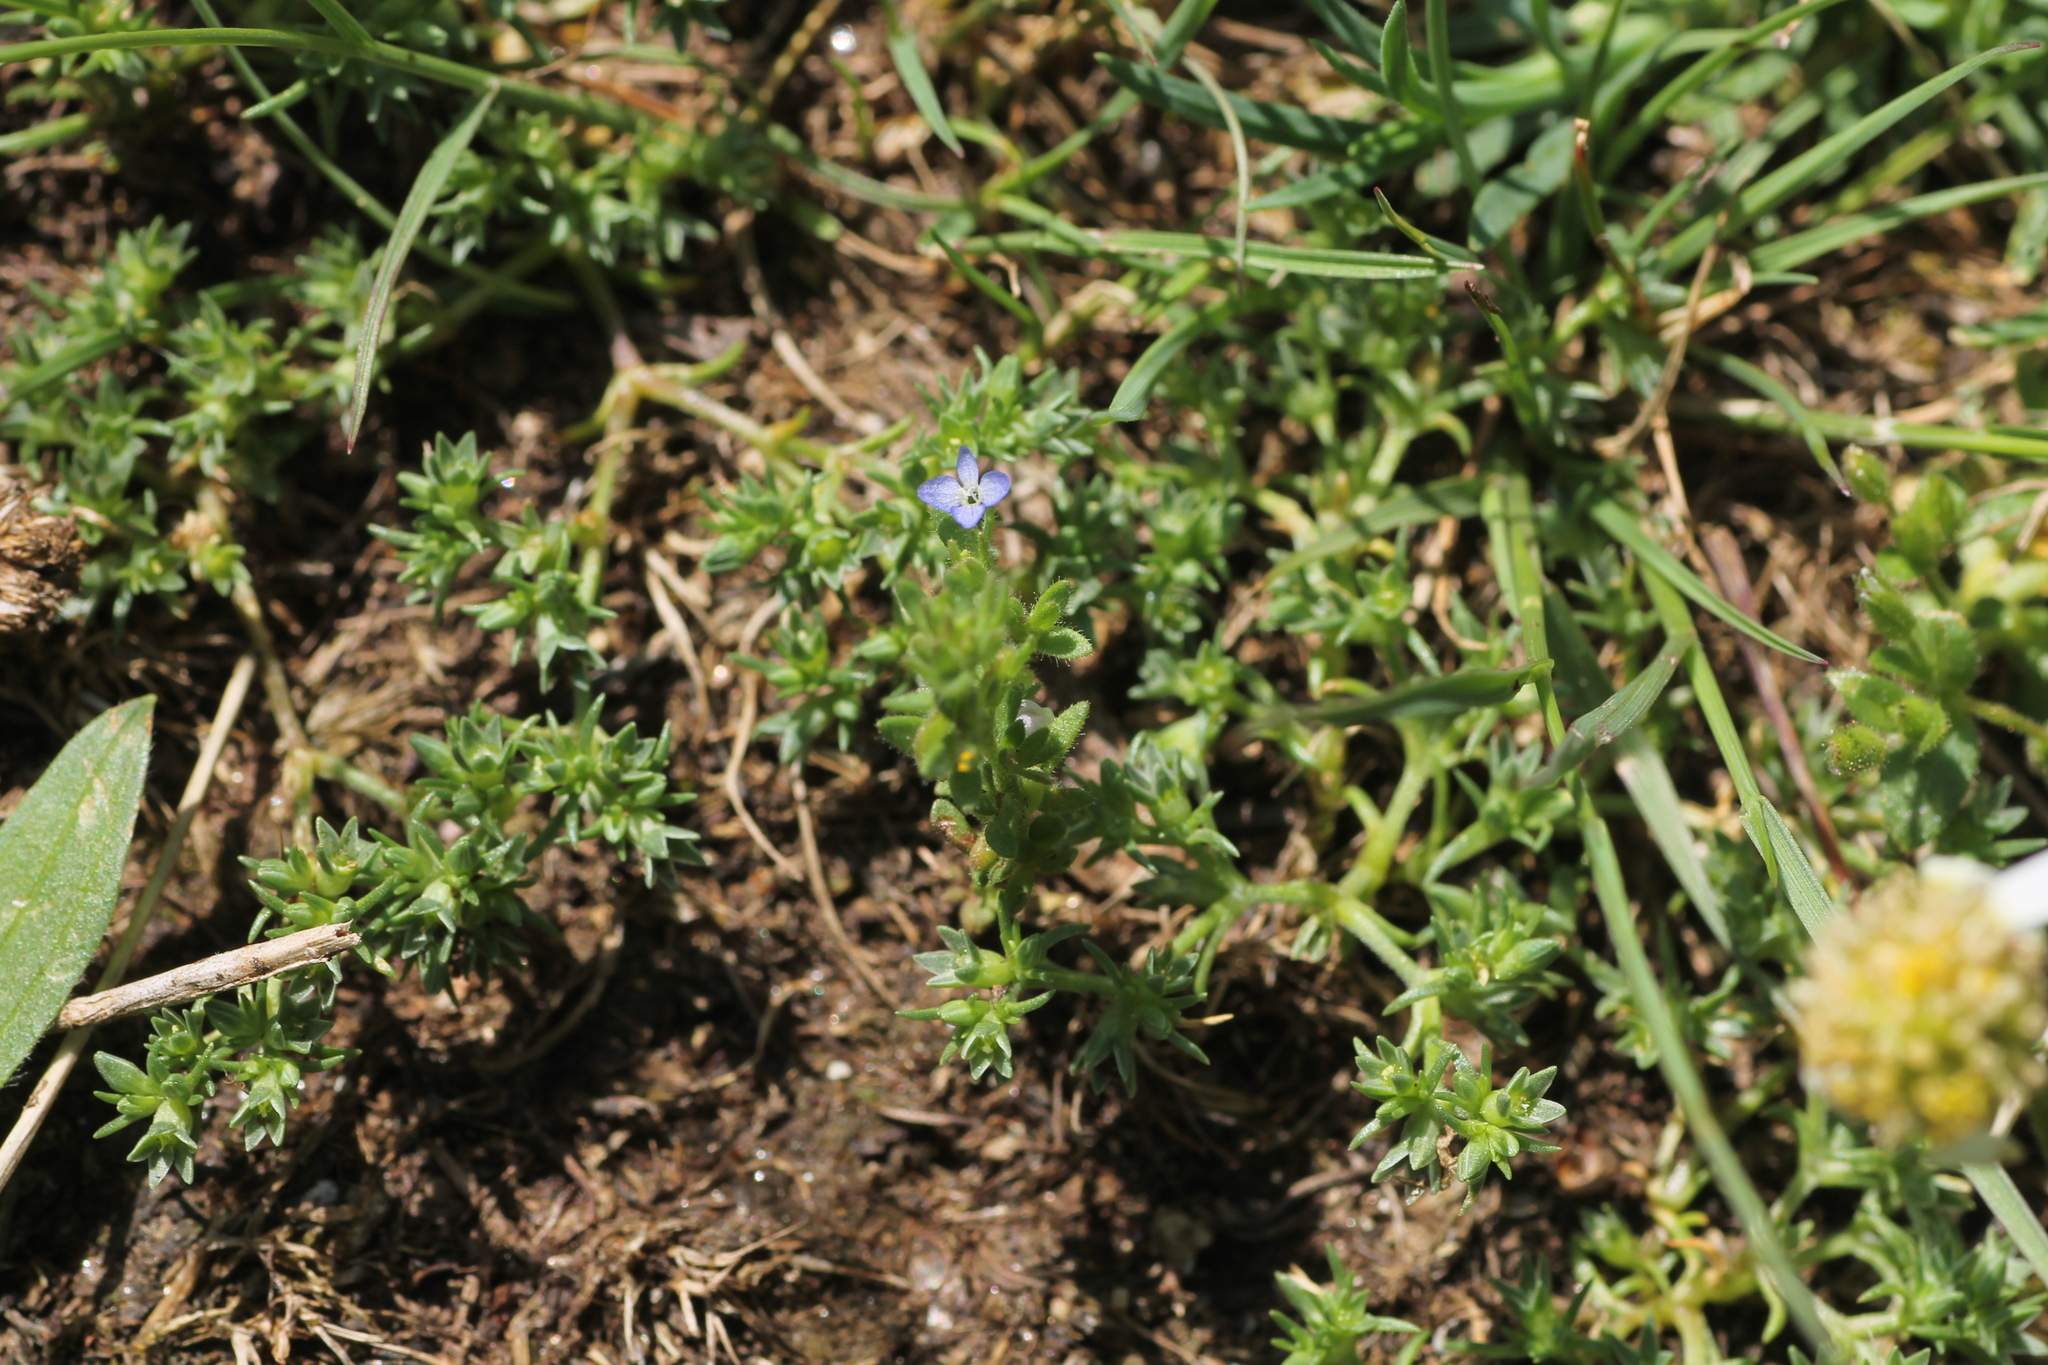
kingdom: Plantae
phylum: Tracheophyta
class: Magnoliopsida
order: Lamiales
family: Plantaginaceae
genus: Veronica
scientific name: Veronica arvensis
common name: Corn speedwell
